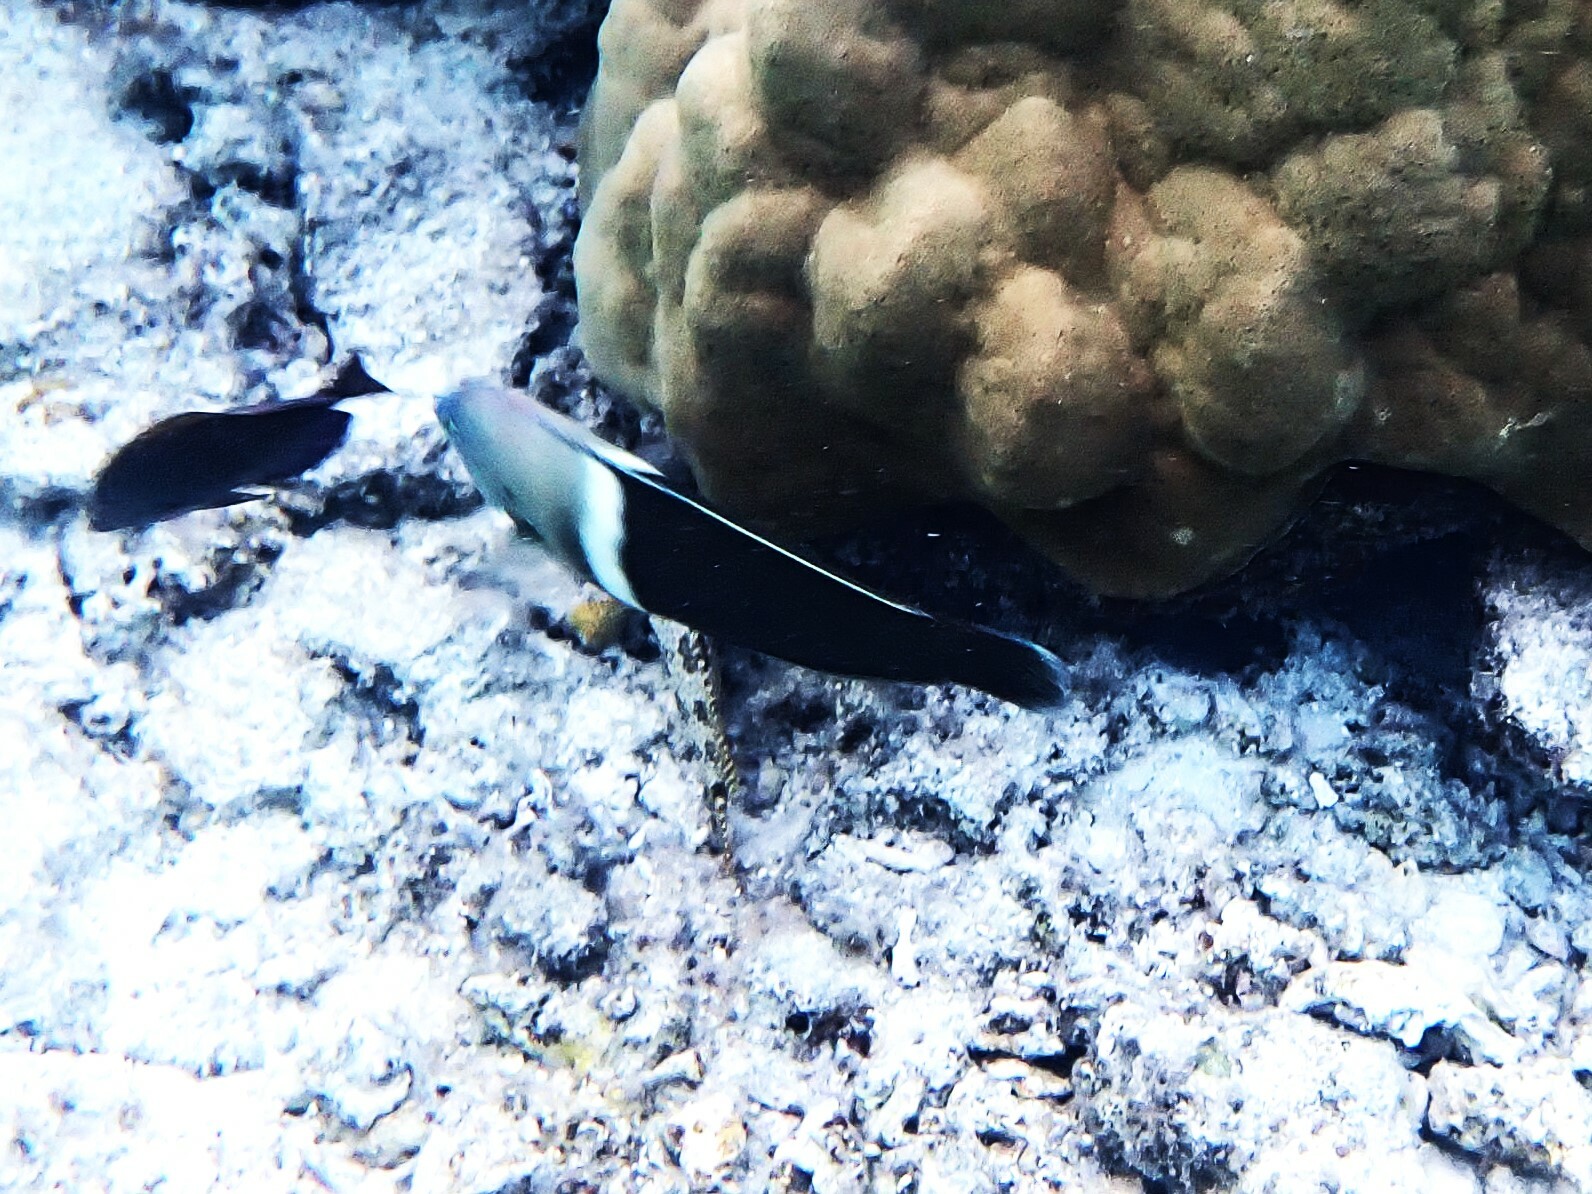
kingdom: Animalia
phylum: Chordata
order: Perciformes
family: Labridae
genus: Coris
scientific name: Coris aygula
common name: Clown coris
